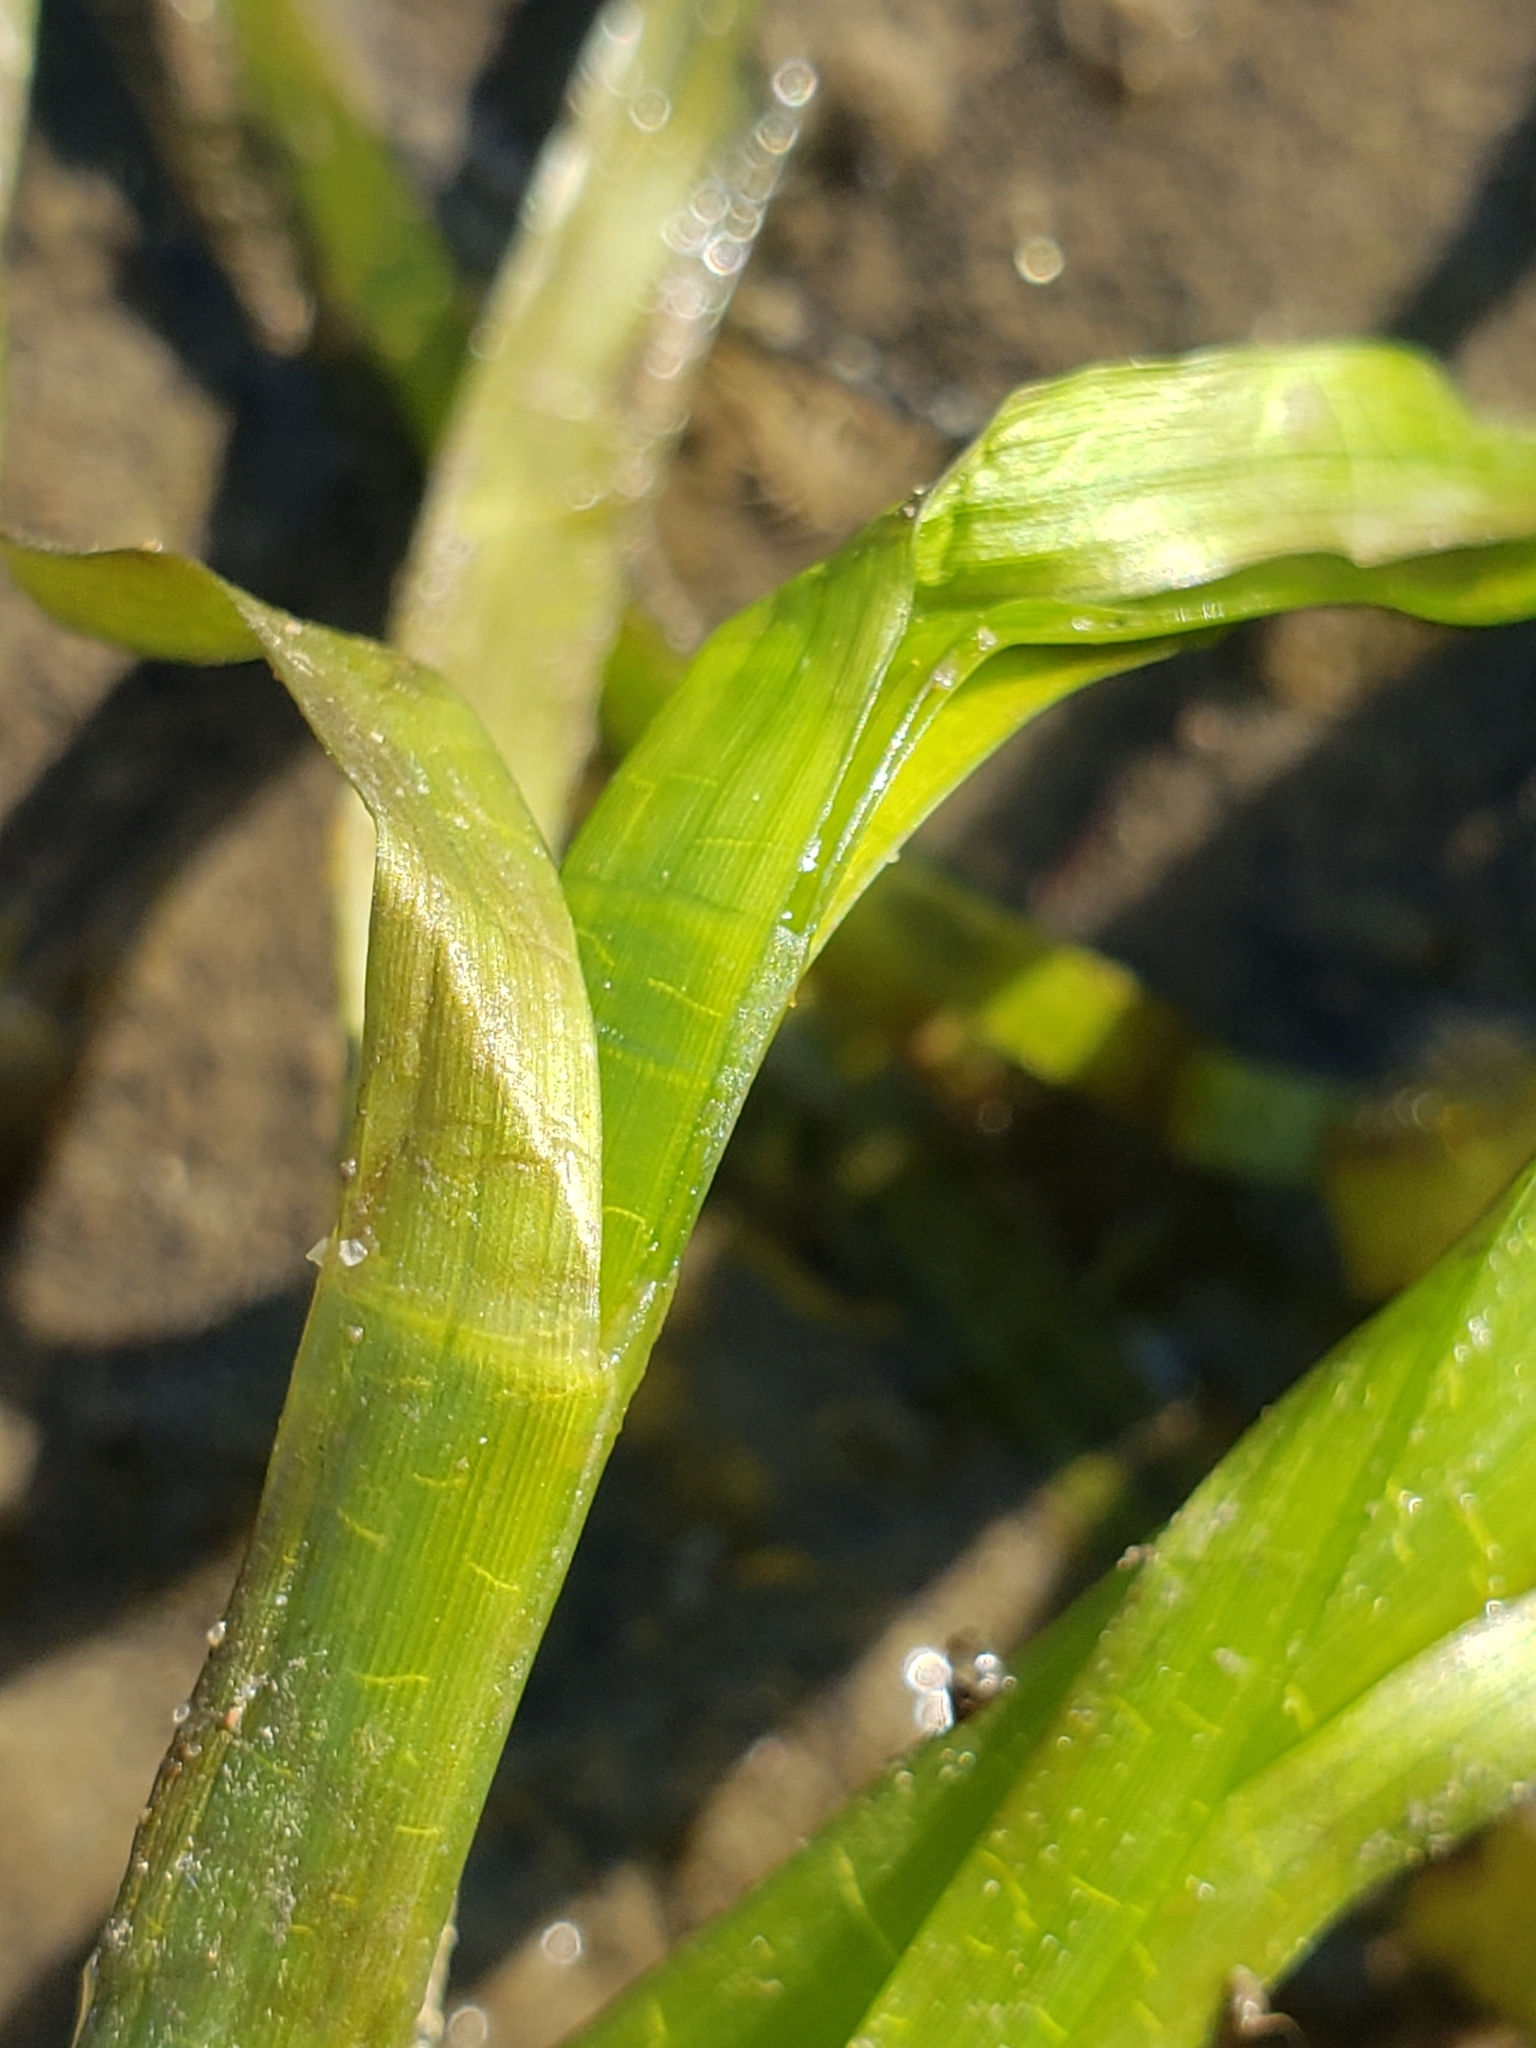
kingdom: Plantae
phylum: Tracheophyta
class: Liliopsida
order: Alismatales
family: Zosteraceae
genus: Zostera
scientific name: Zostera marina
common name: Eelgrass
